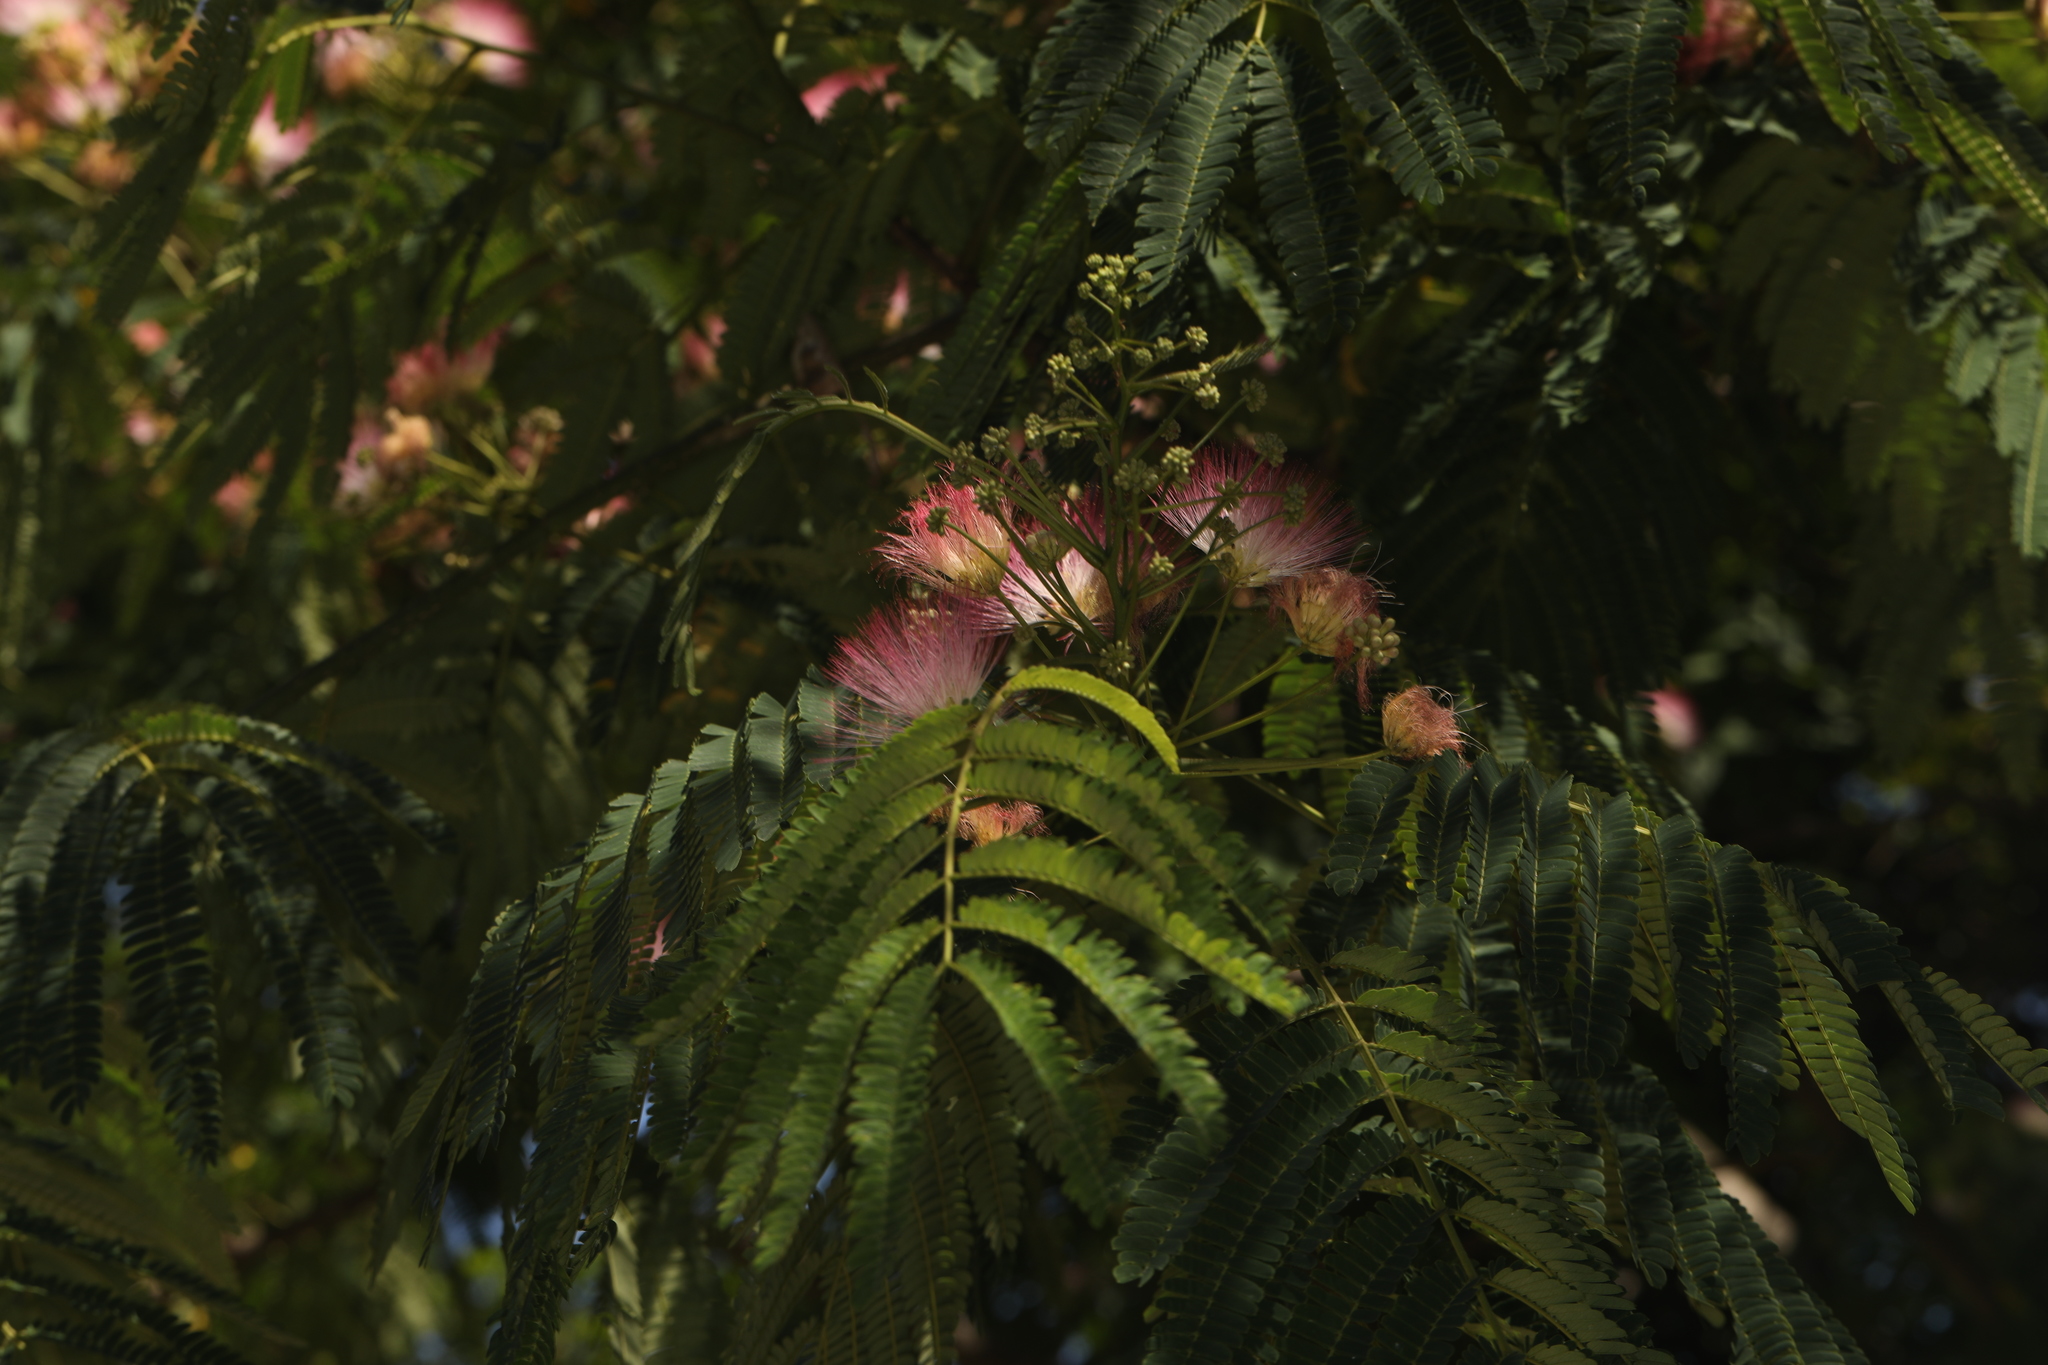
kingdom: Plantae
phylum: Tracheophyta
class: Magnoliopsida
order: Fabales
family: Fabaceae
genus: Albizia
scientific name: Albizia julibrissin
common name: Silktree
